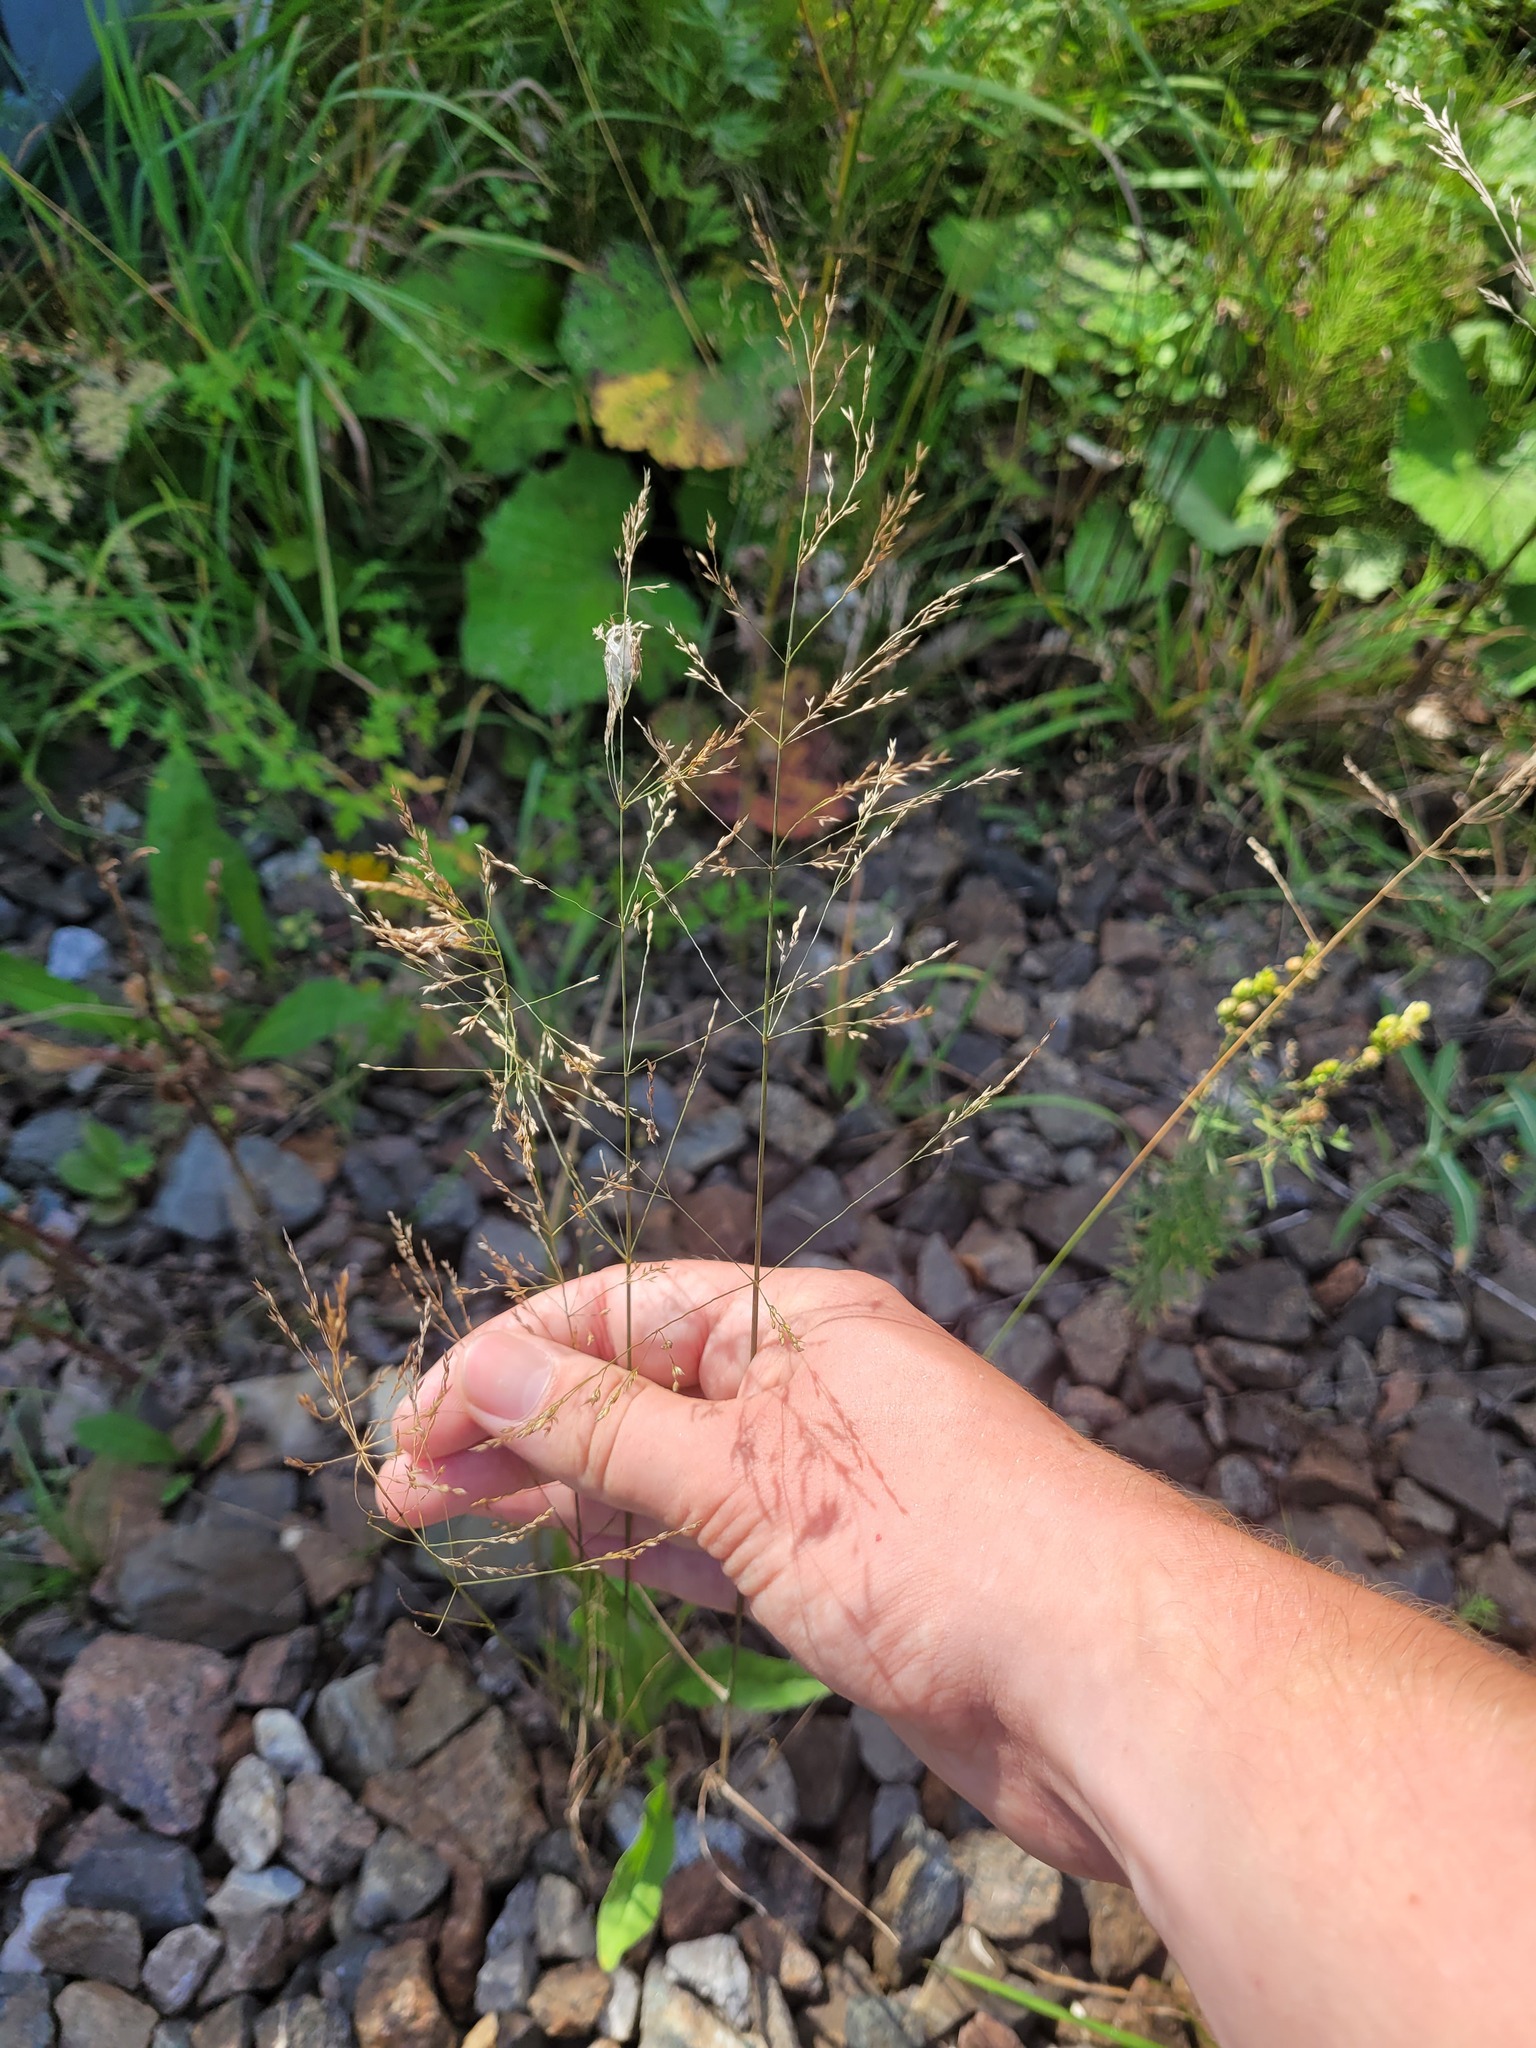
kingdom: Plantae
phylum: Tracheophyta
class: Liliopsida
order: Poales
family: Poaceae
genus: Poa
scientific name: Poa palustris
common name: Swamp meadow-grass
